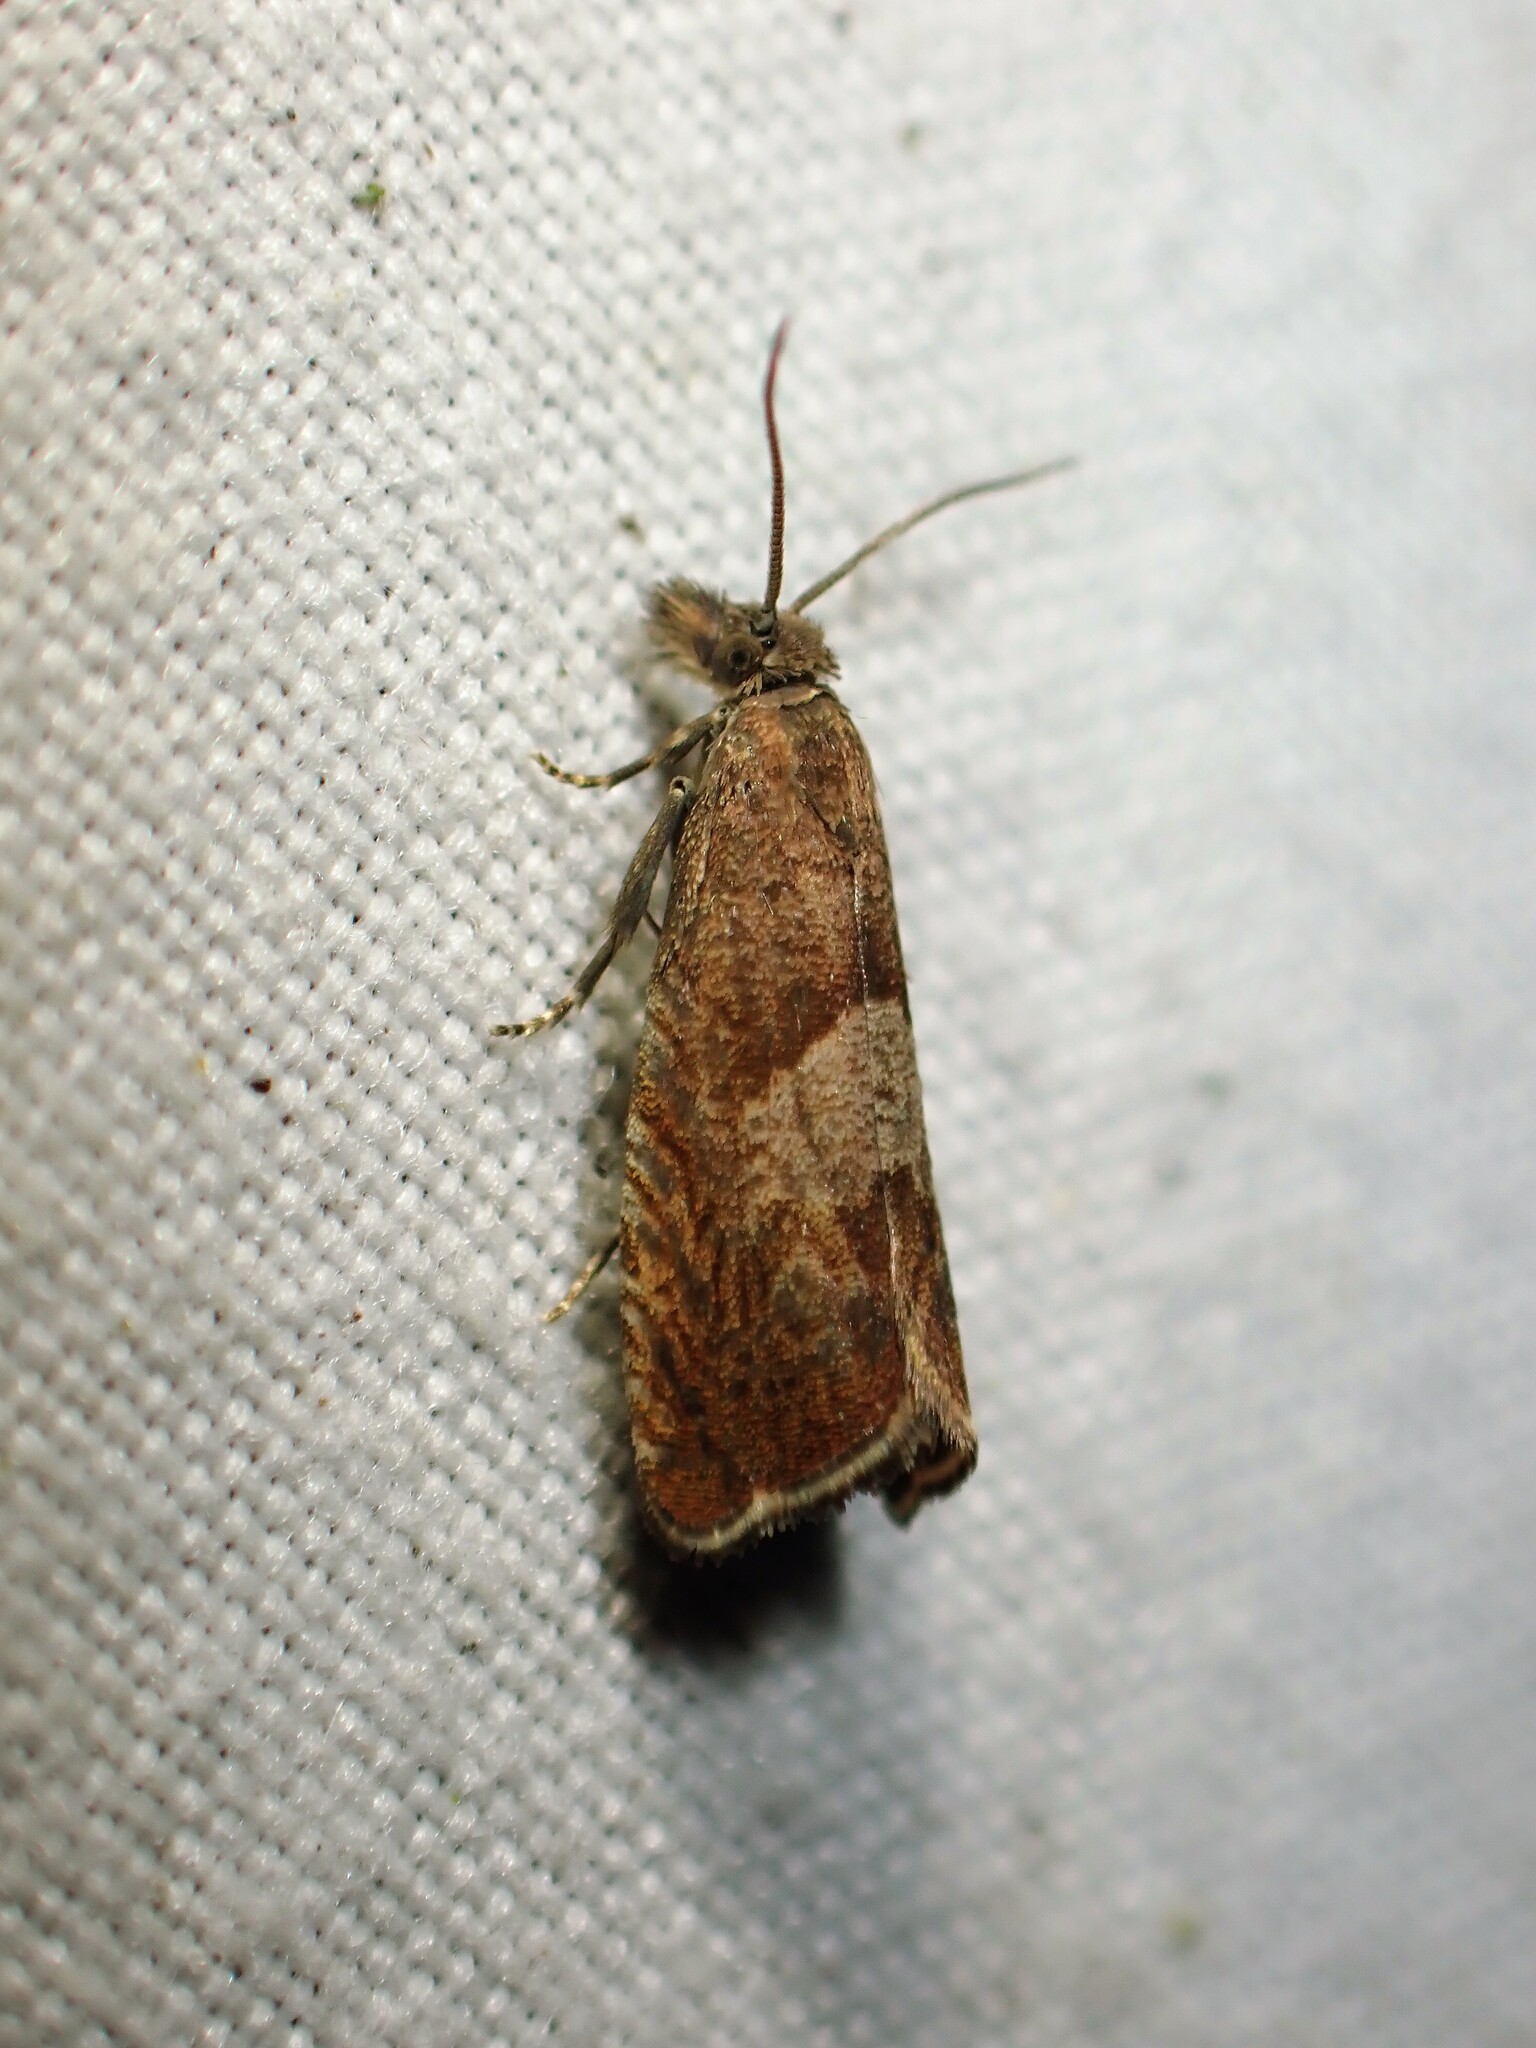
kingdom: Animalia
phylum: Arthropoda
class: Insecta
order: Lepidoptera
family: Tortricidae
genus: Dichrorampha
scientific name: Dichrorampha acuminatana
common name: Sharp-winged drill
